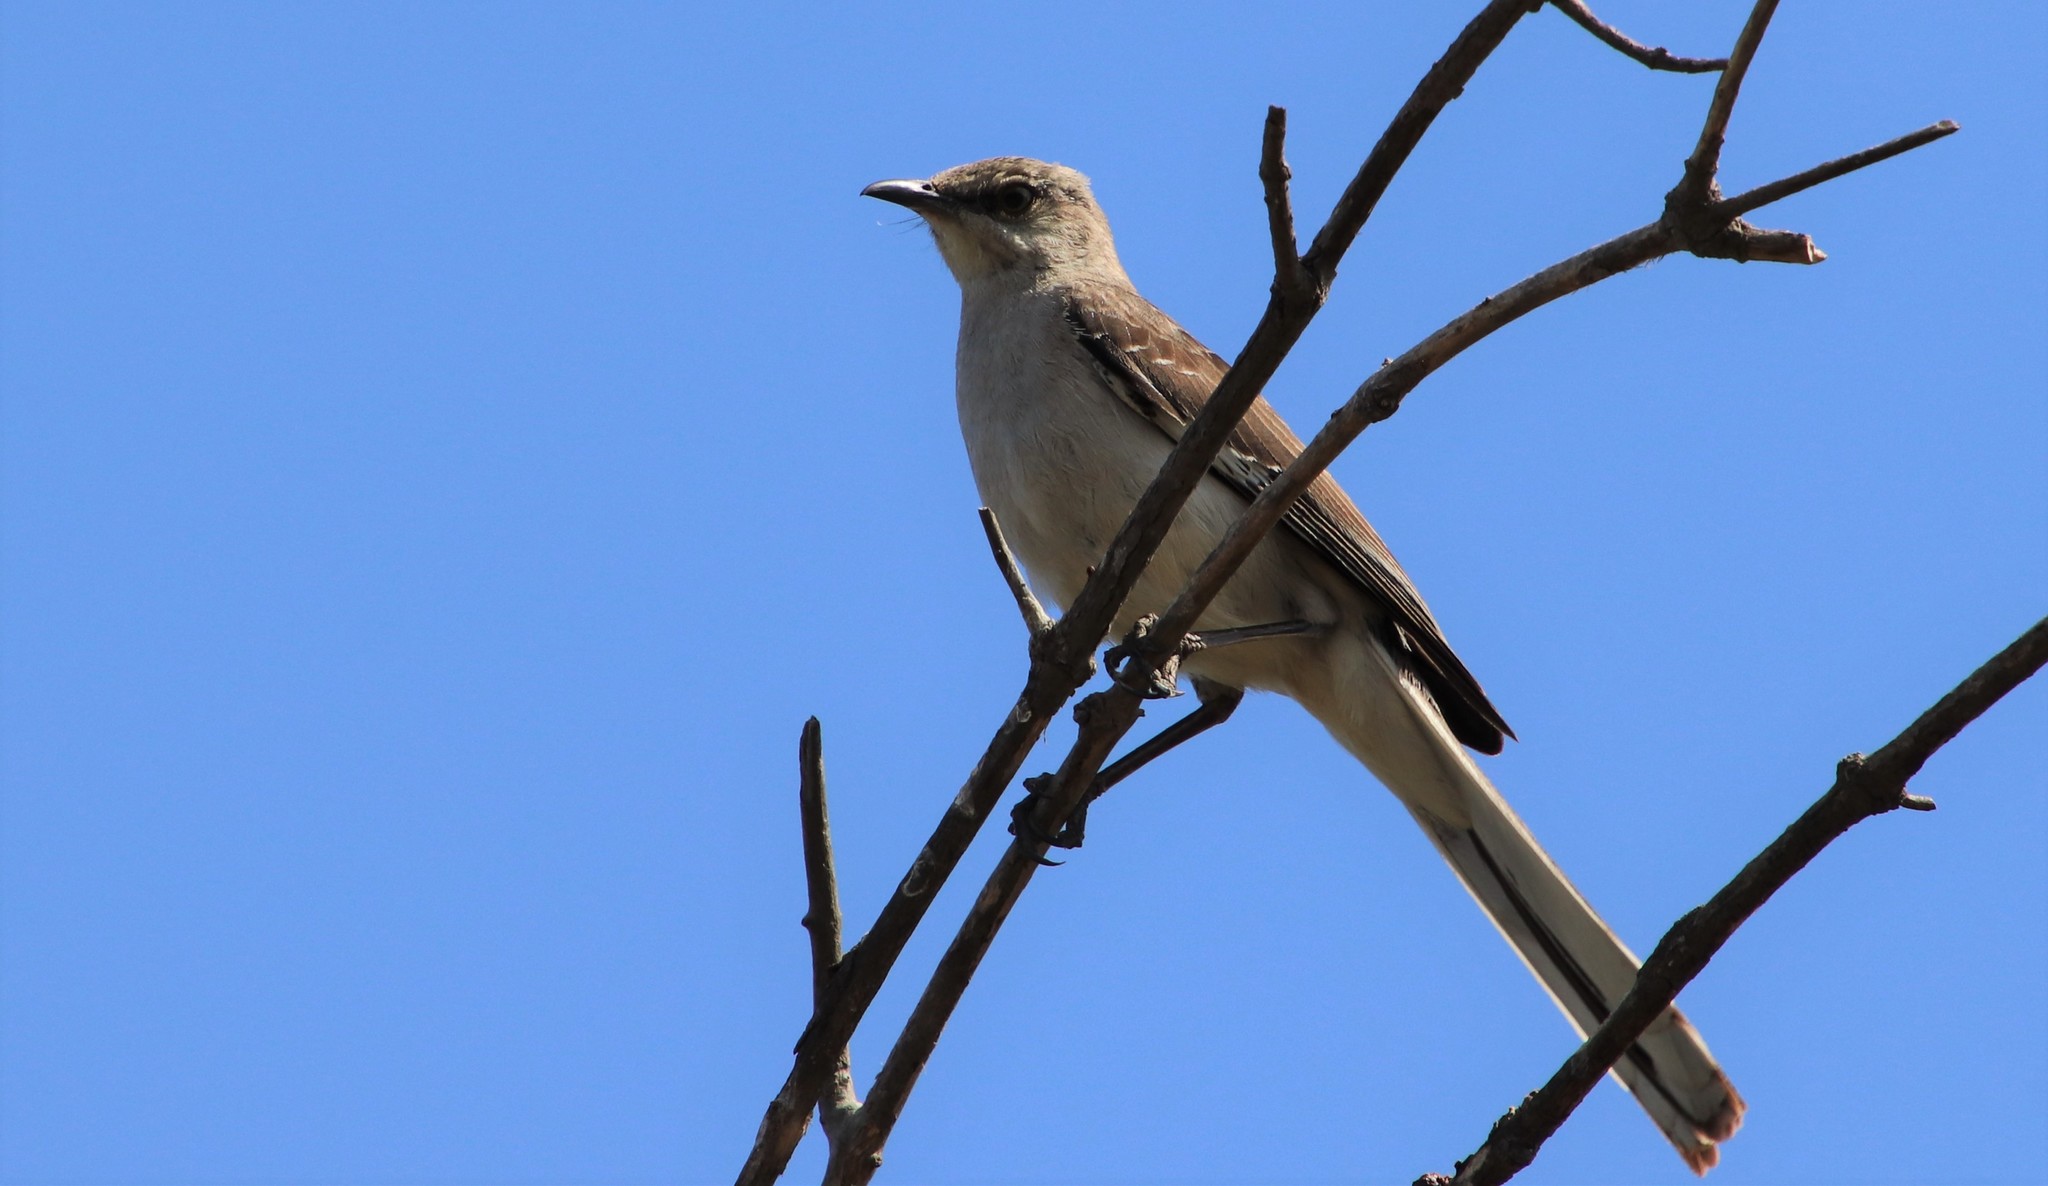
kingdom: Animalia
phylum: Chordata
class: Aves
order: Passeriformes
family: Mimidae
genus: Mimus
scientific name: Mimus polyglottos
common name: Northern mockingbird
